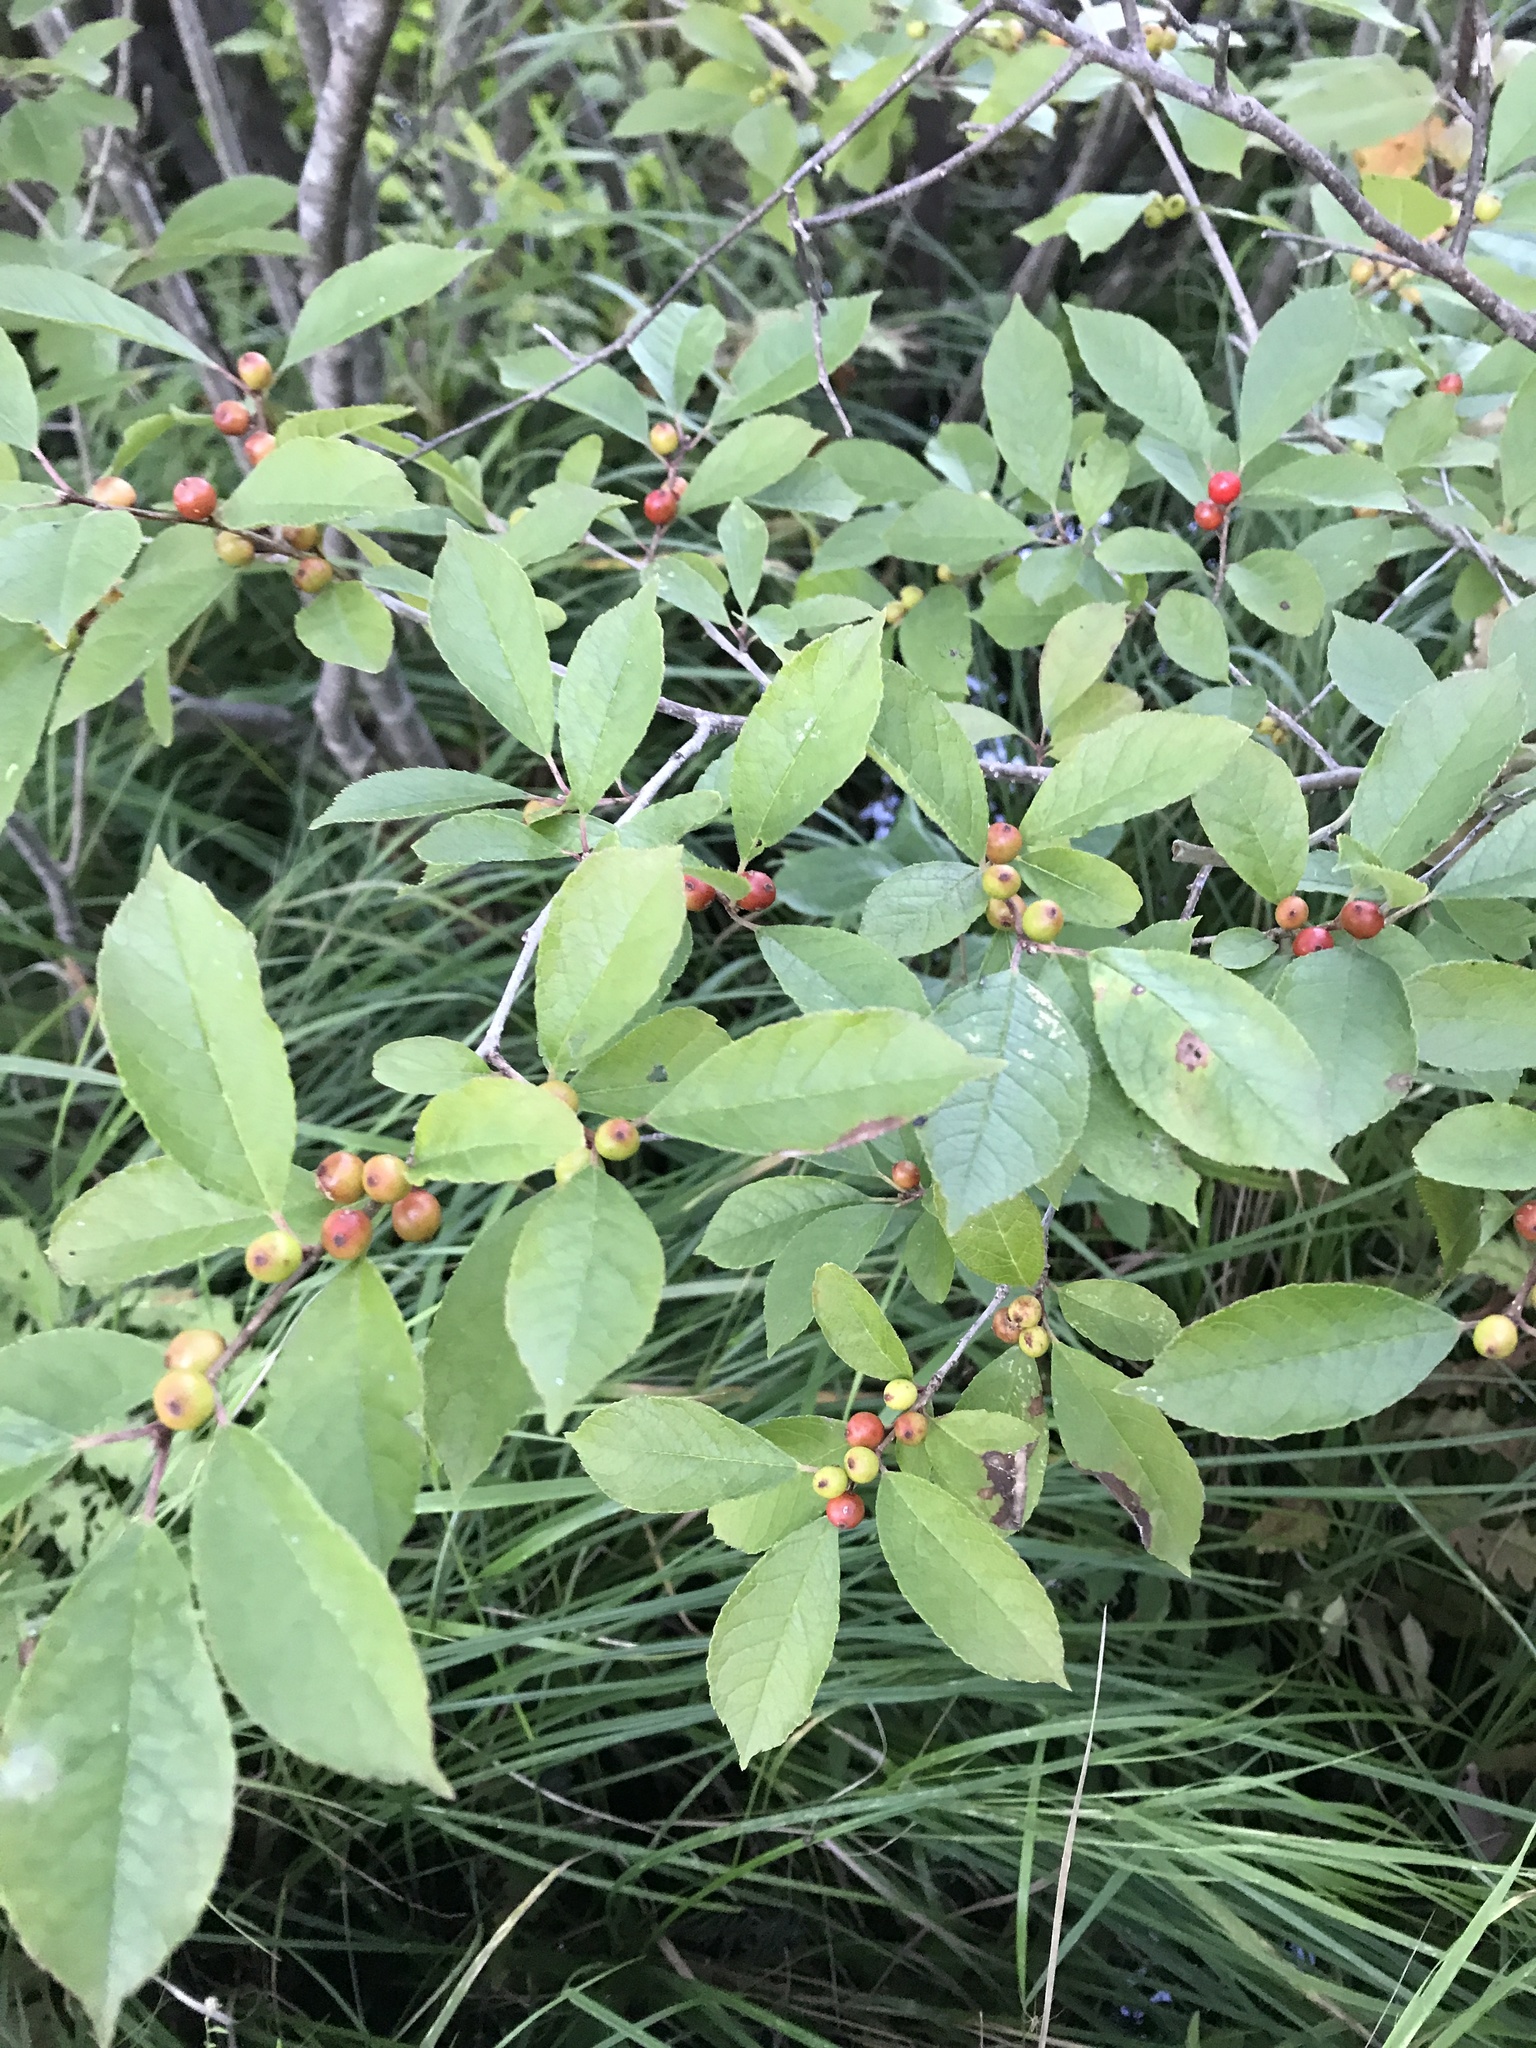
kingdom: Plantae
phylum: Tracheophyta
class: Magnoliopsida
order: Aquifoliales
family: Aquifoliaceae
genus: Ilex
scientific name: Ilex verticillata
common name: Virginia winterberry
